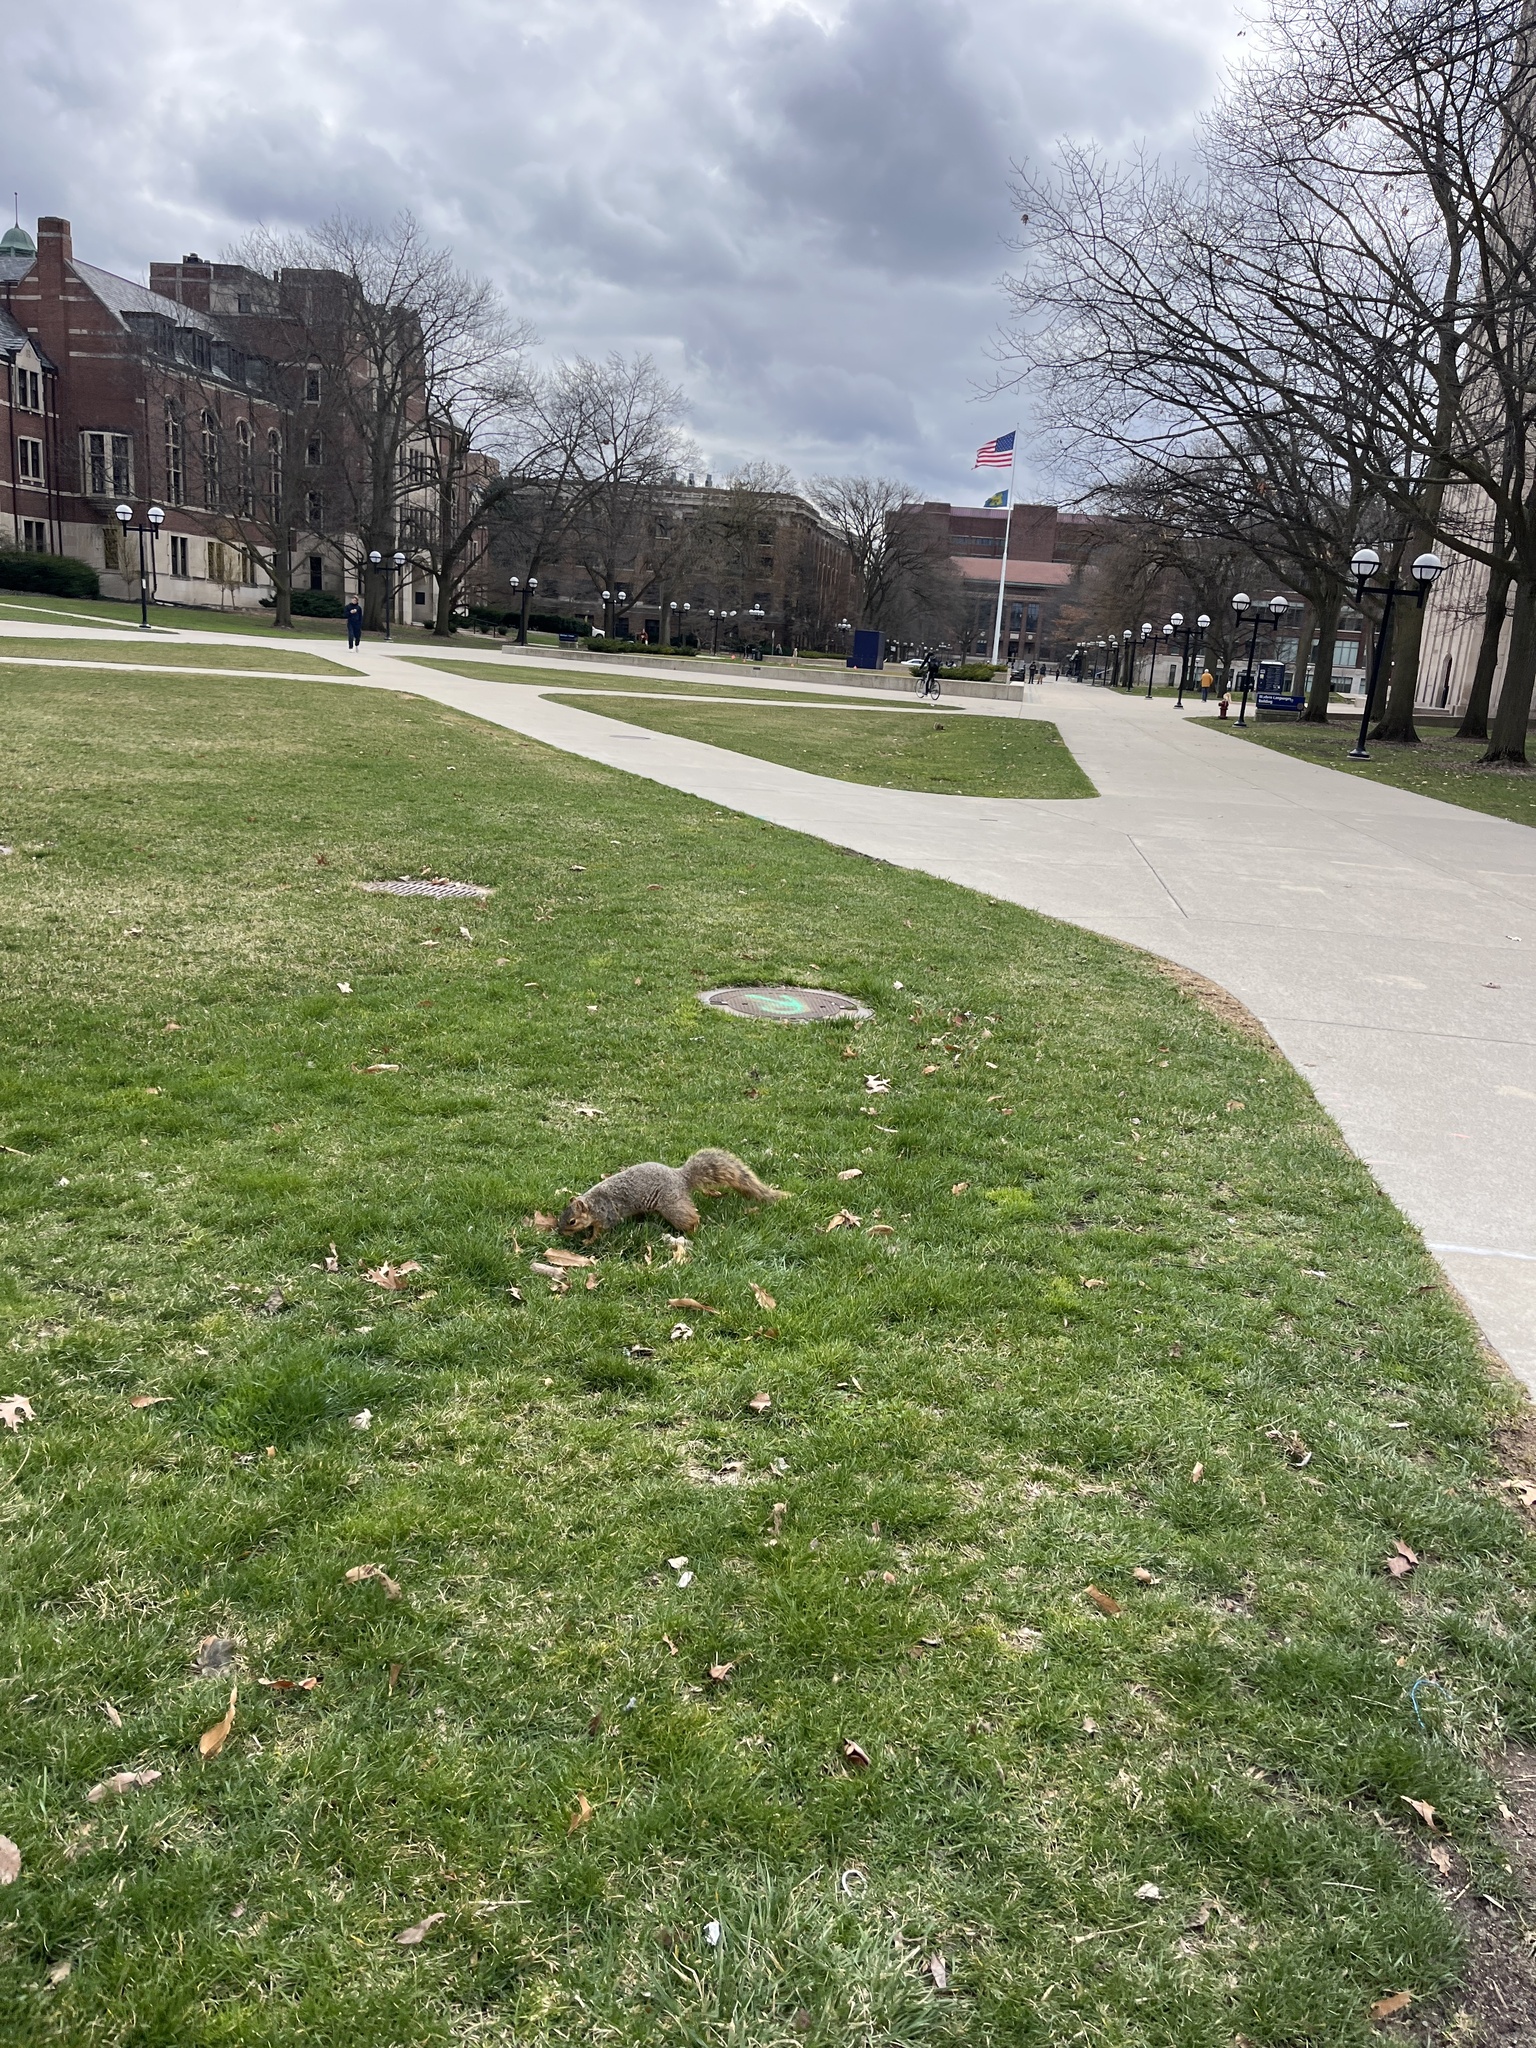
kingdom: Animalia
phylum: Chordata
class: Mammalia
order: Rodentia
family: Sciuridae
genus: Sciurus
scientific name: Sciurus niger
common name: Fox squirrel
